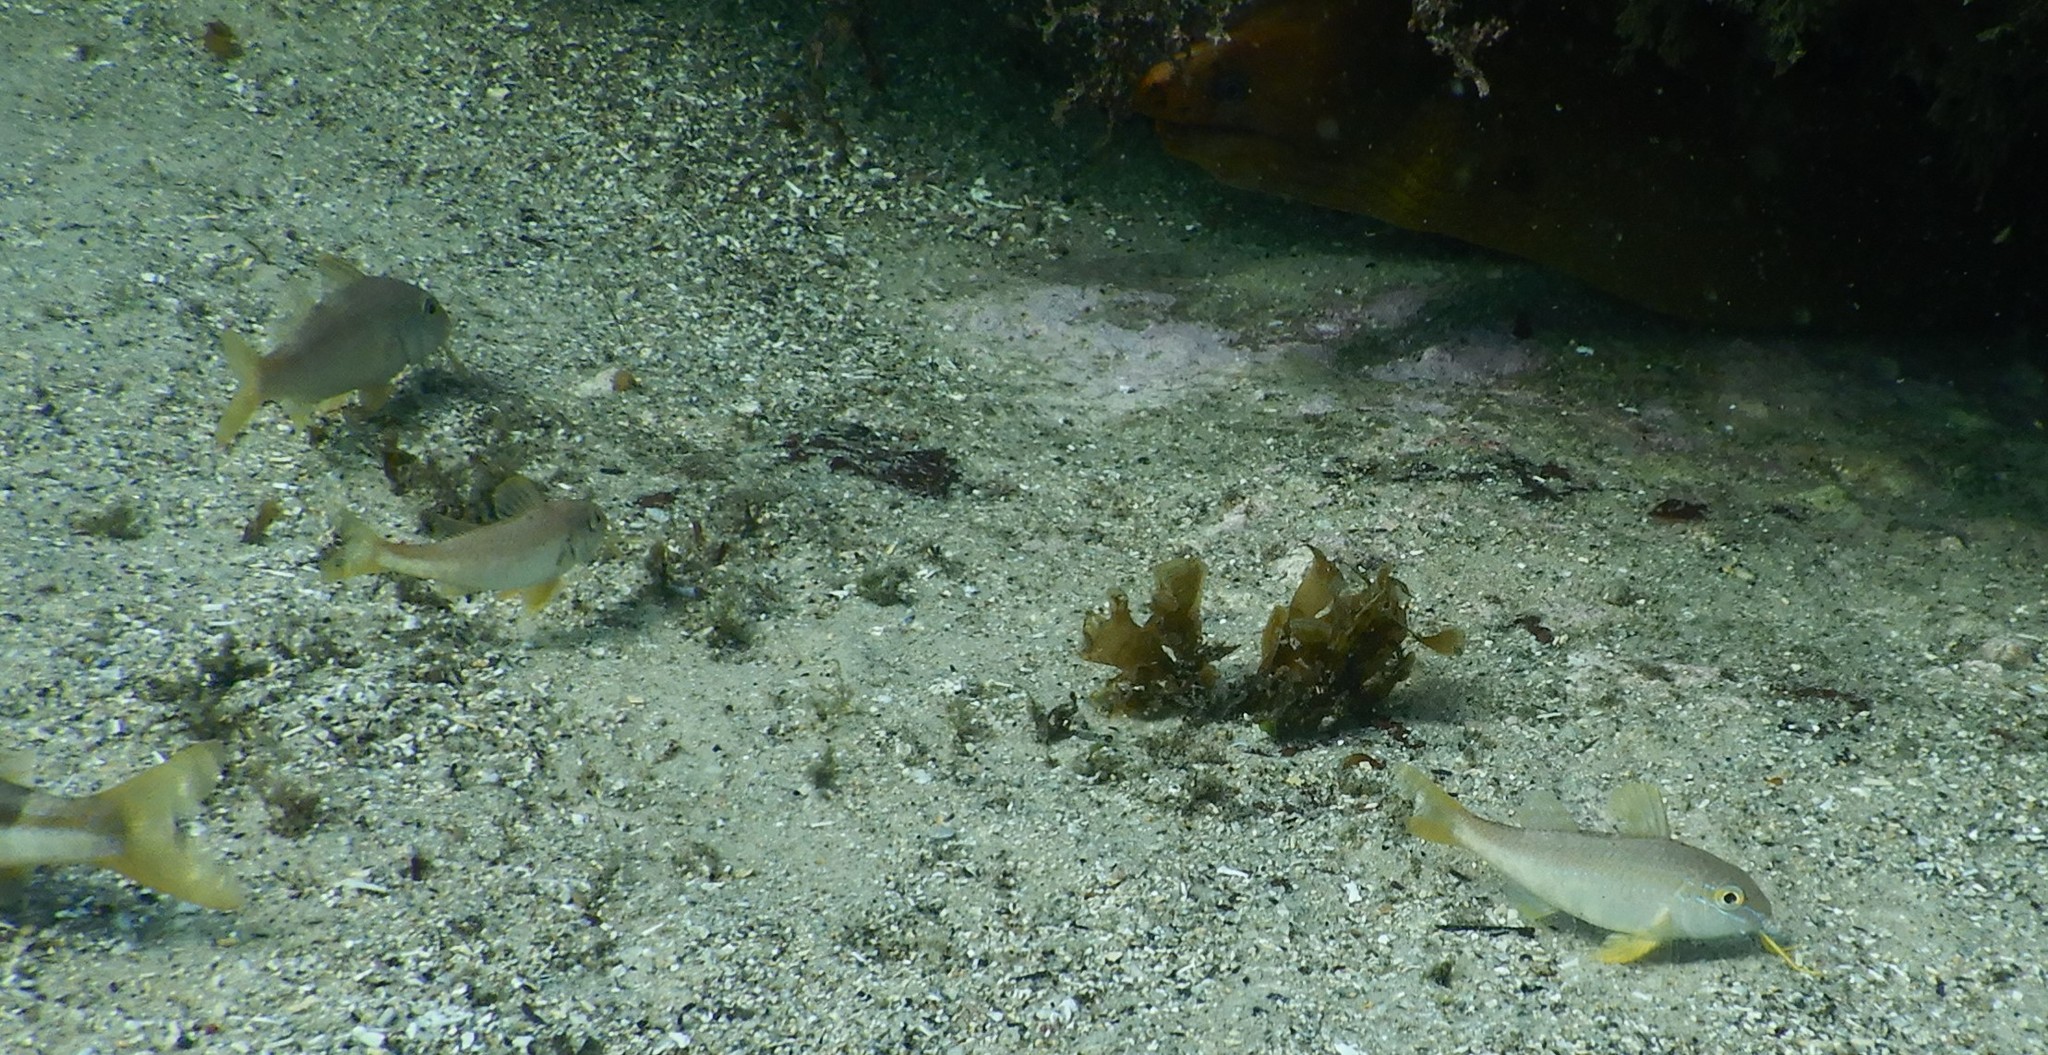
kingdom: Animalia
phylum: Chordata
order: Perciformes
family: Mullidae
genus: Upeneichthys
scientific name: Upeneichthys lineatus
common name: Red mullet
